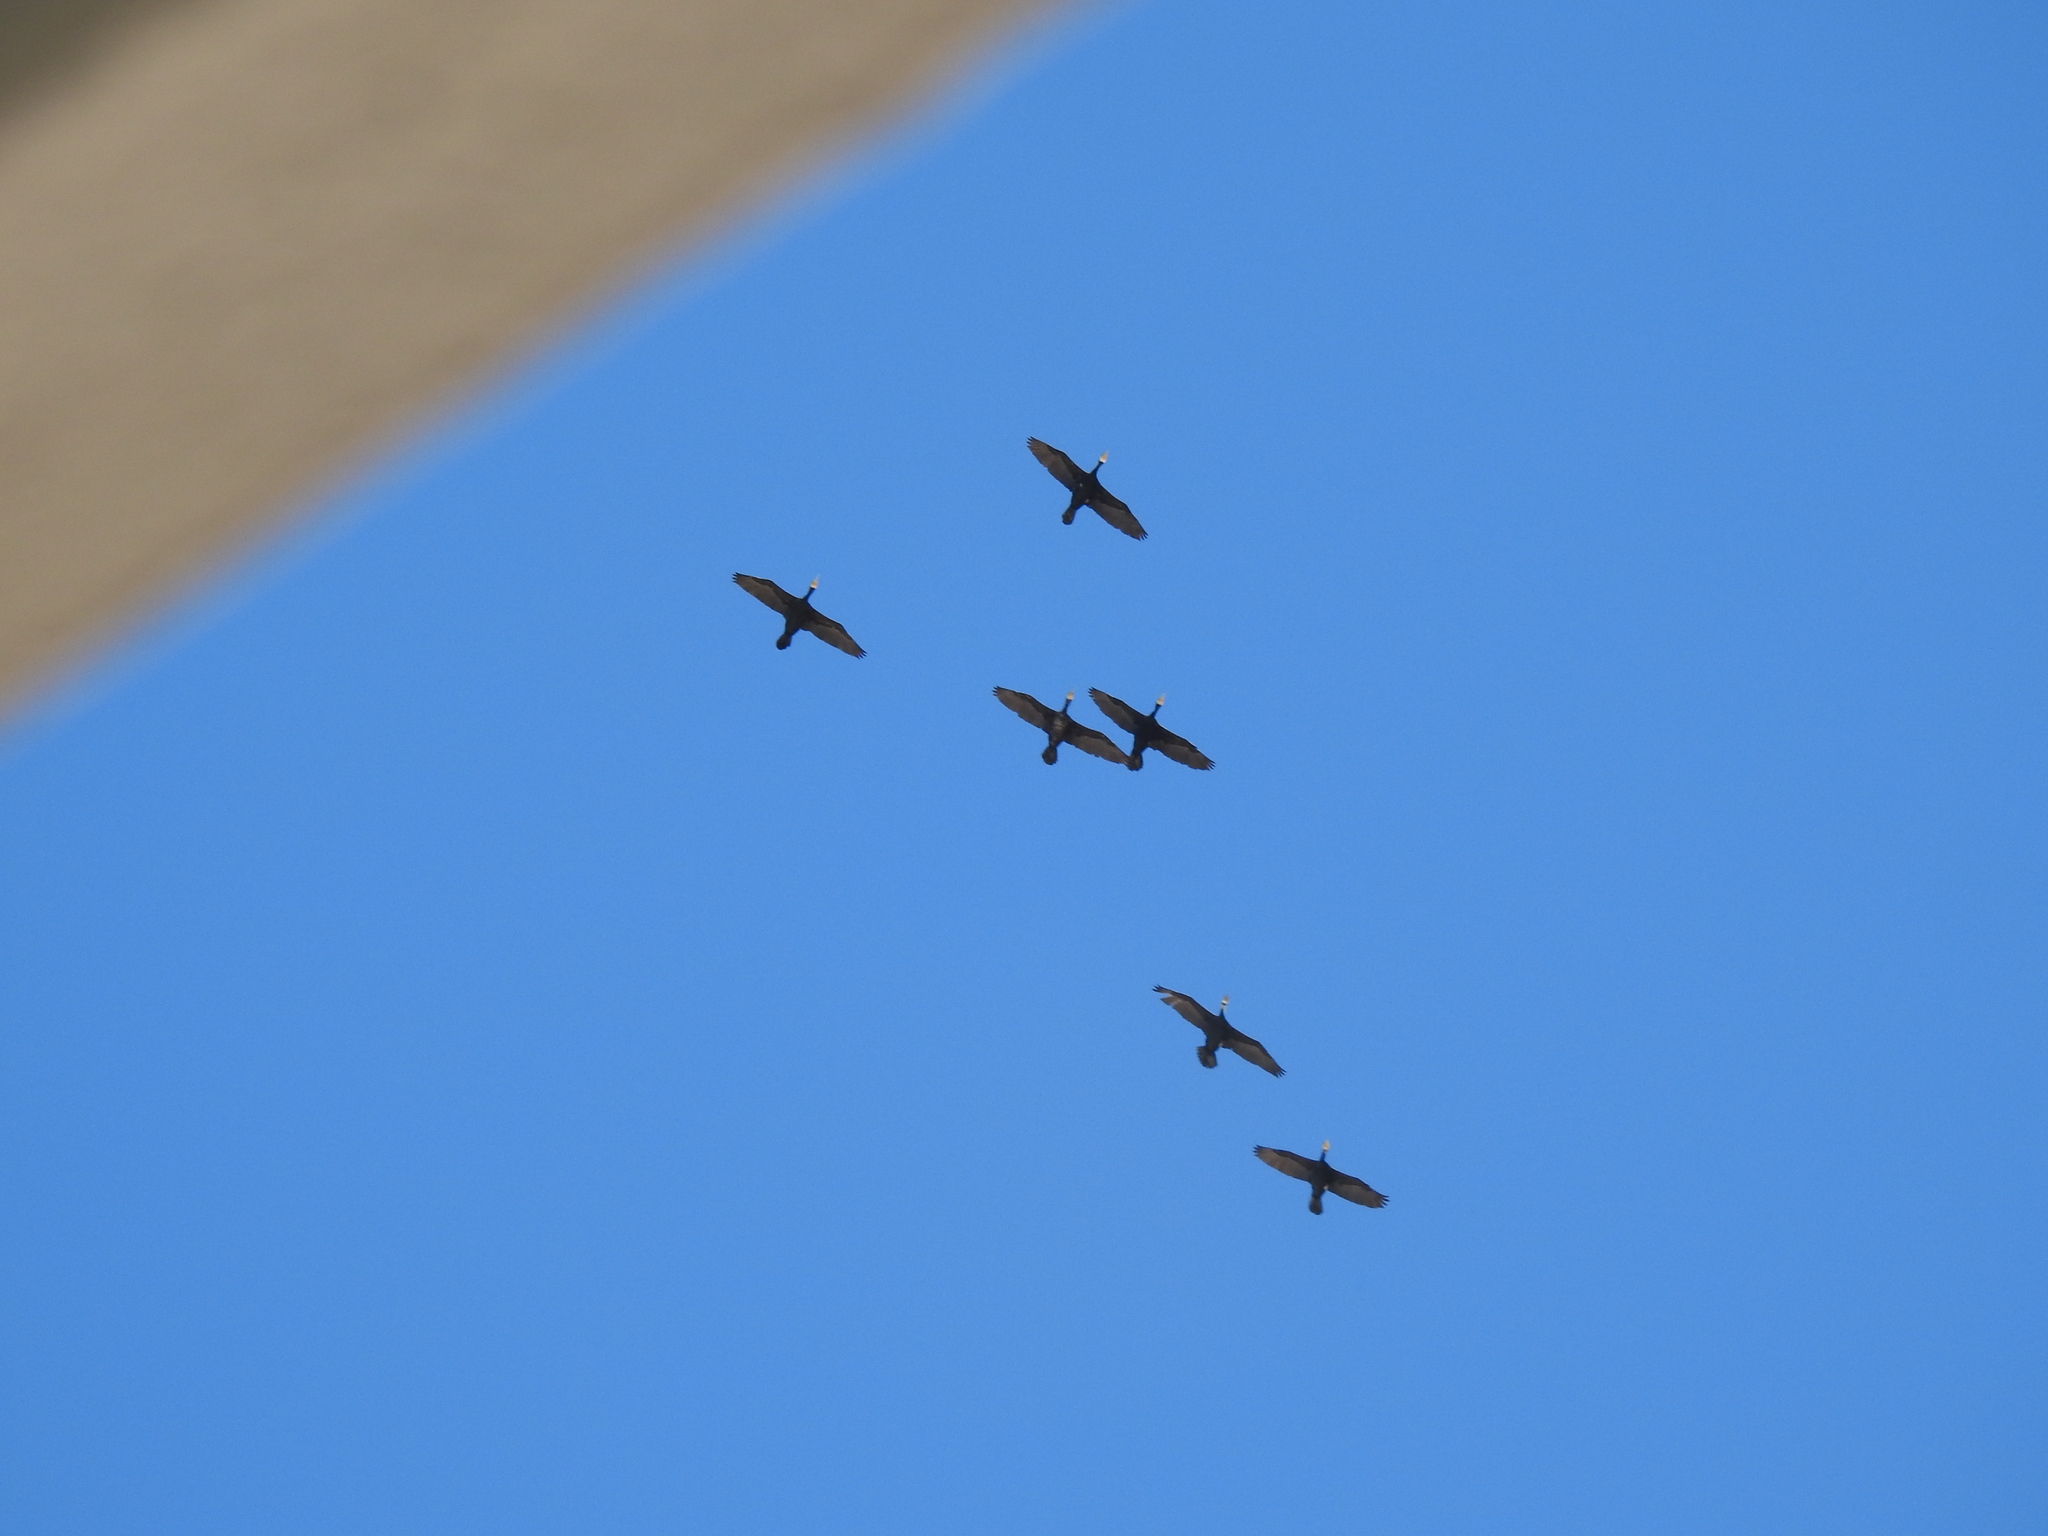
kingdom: Animalia
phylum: Chordata
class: Aves
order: Suliformes
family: Phalacrocoracidae
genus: Phalacrocorax
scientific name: Phalacrocorax carbo
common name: Great cormorant
